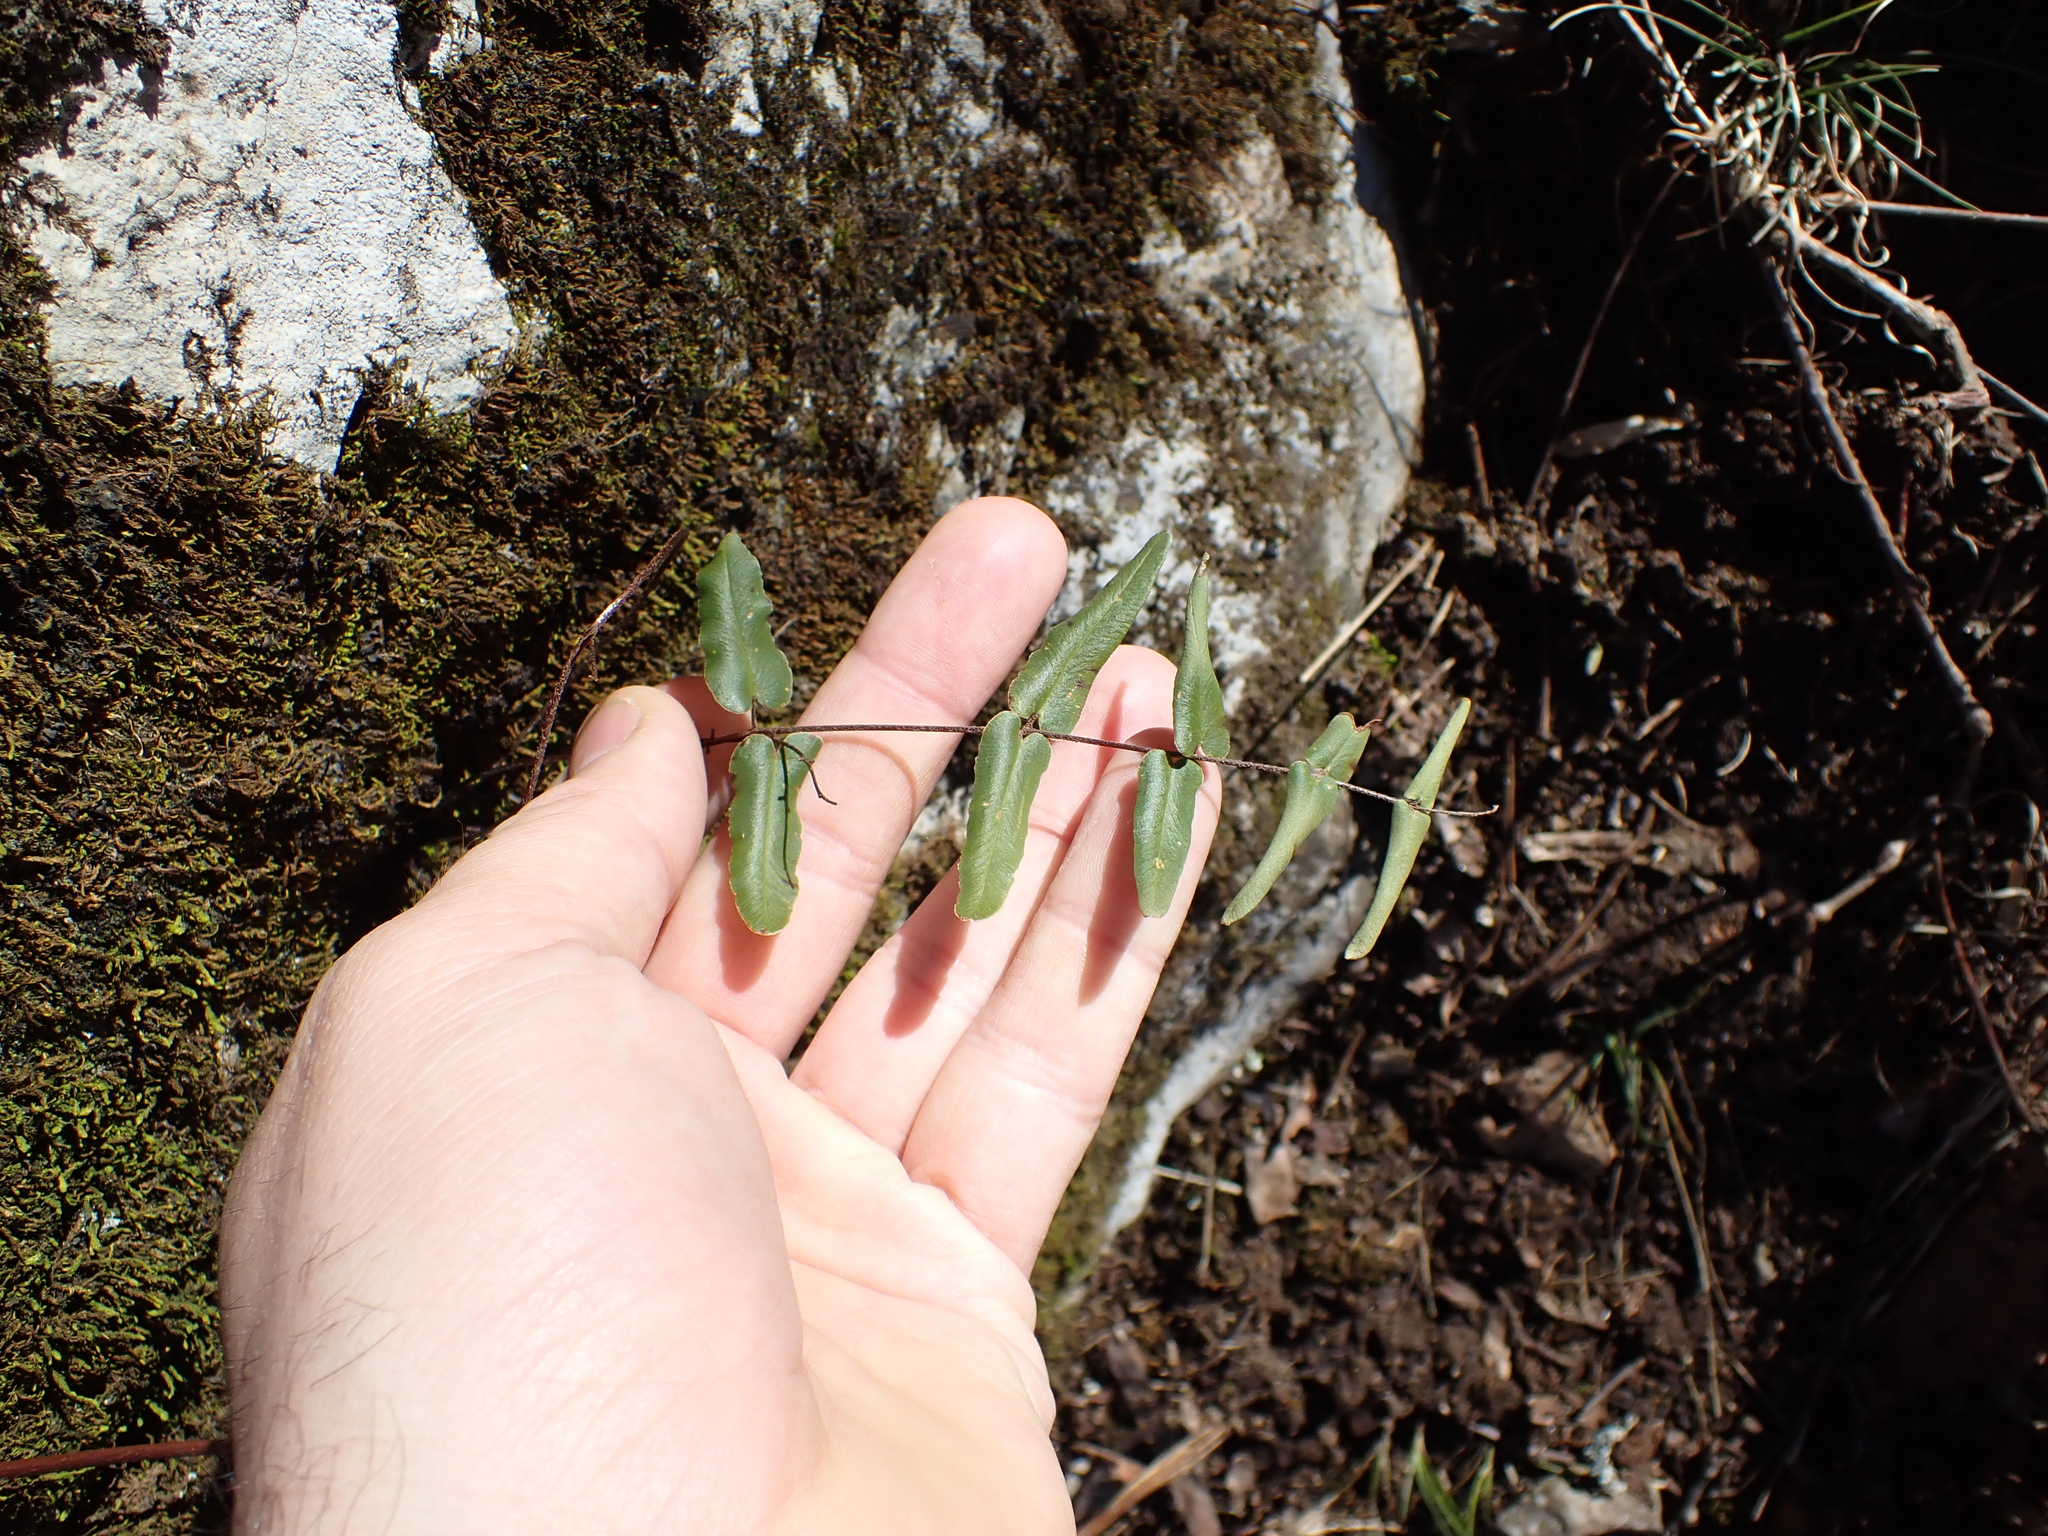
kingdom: Plantae
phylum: Tracheophyta
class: Polypodiopsida
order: Polypodiales
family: Pteridaceae
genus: Pellaea
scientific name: Pellaea atropurpurea
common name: Hairy cliffbrake
